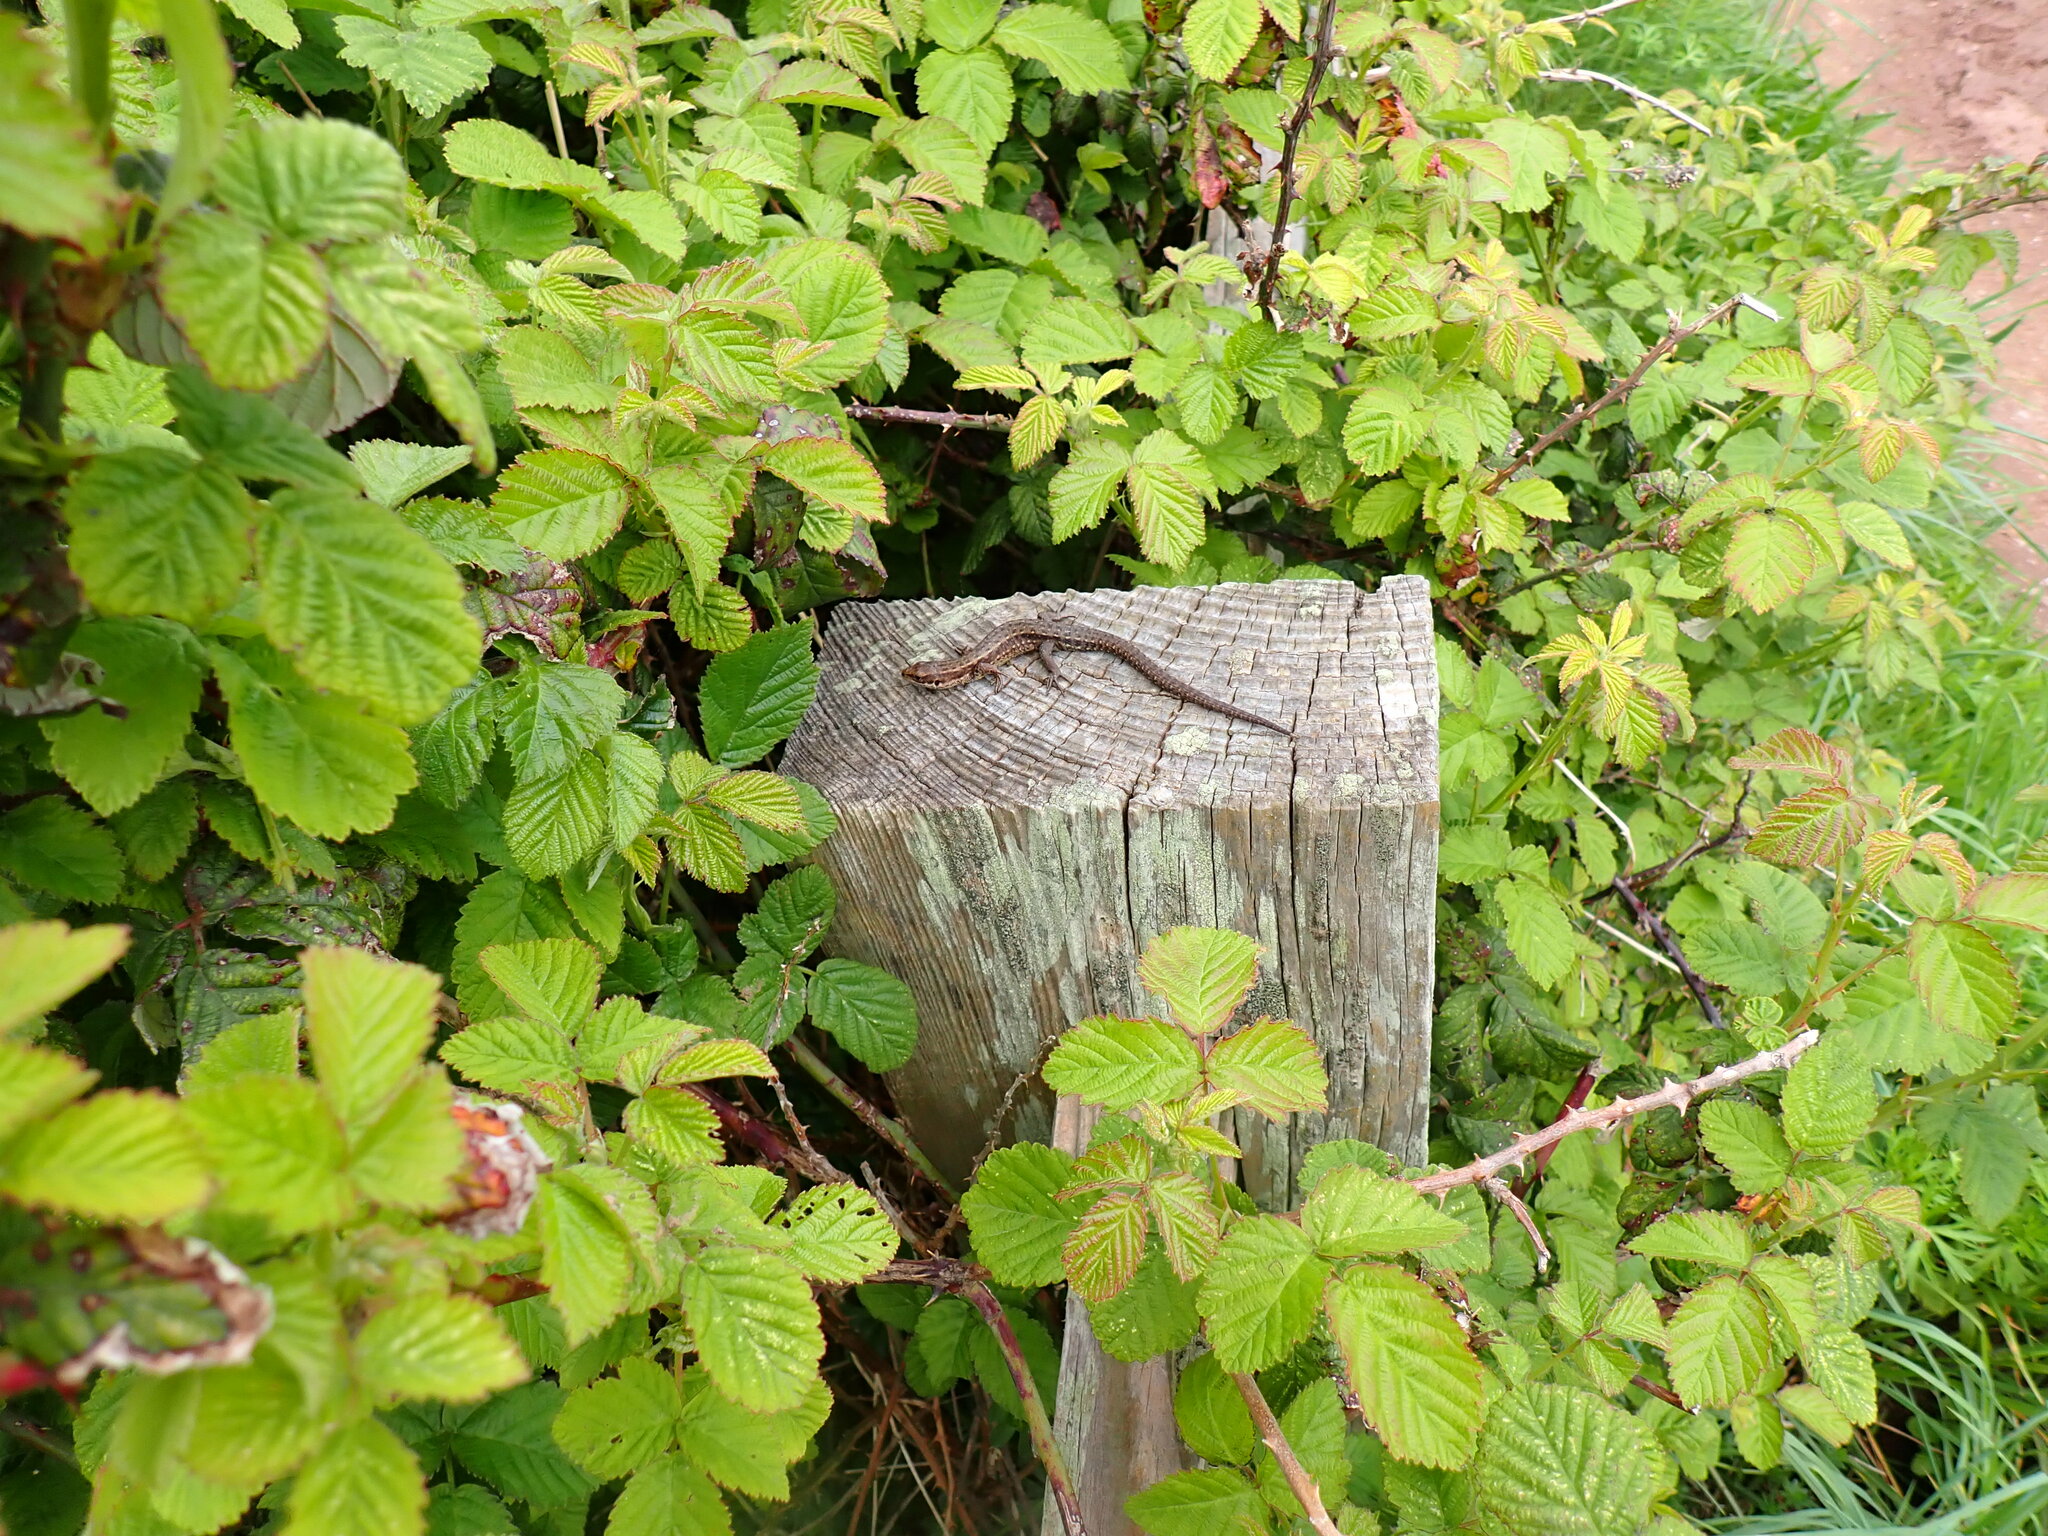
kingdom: Animalia
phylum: Chordata
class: Squamata
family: Lacertidae
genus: Zootoca
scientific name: Zootoca vivipara
